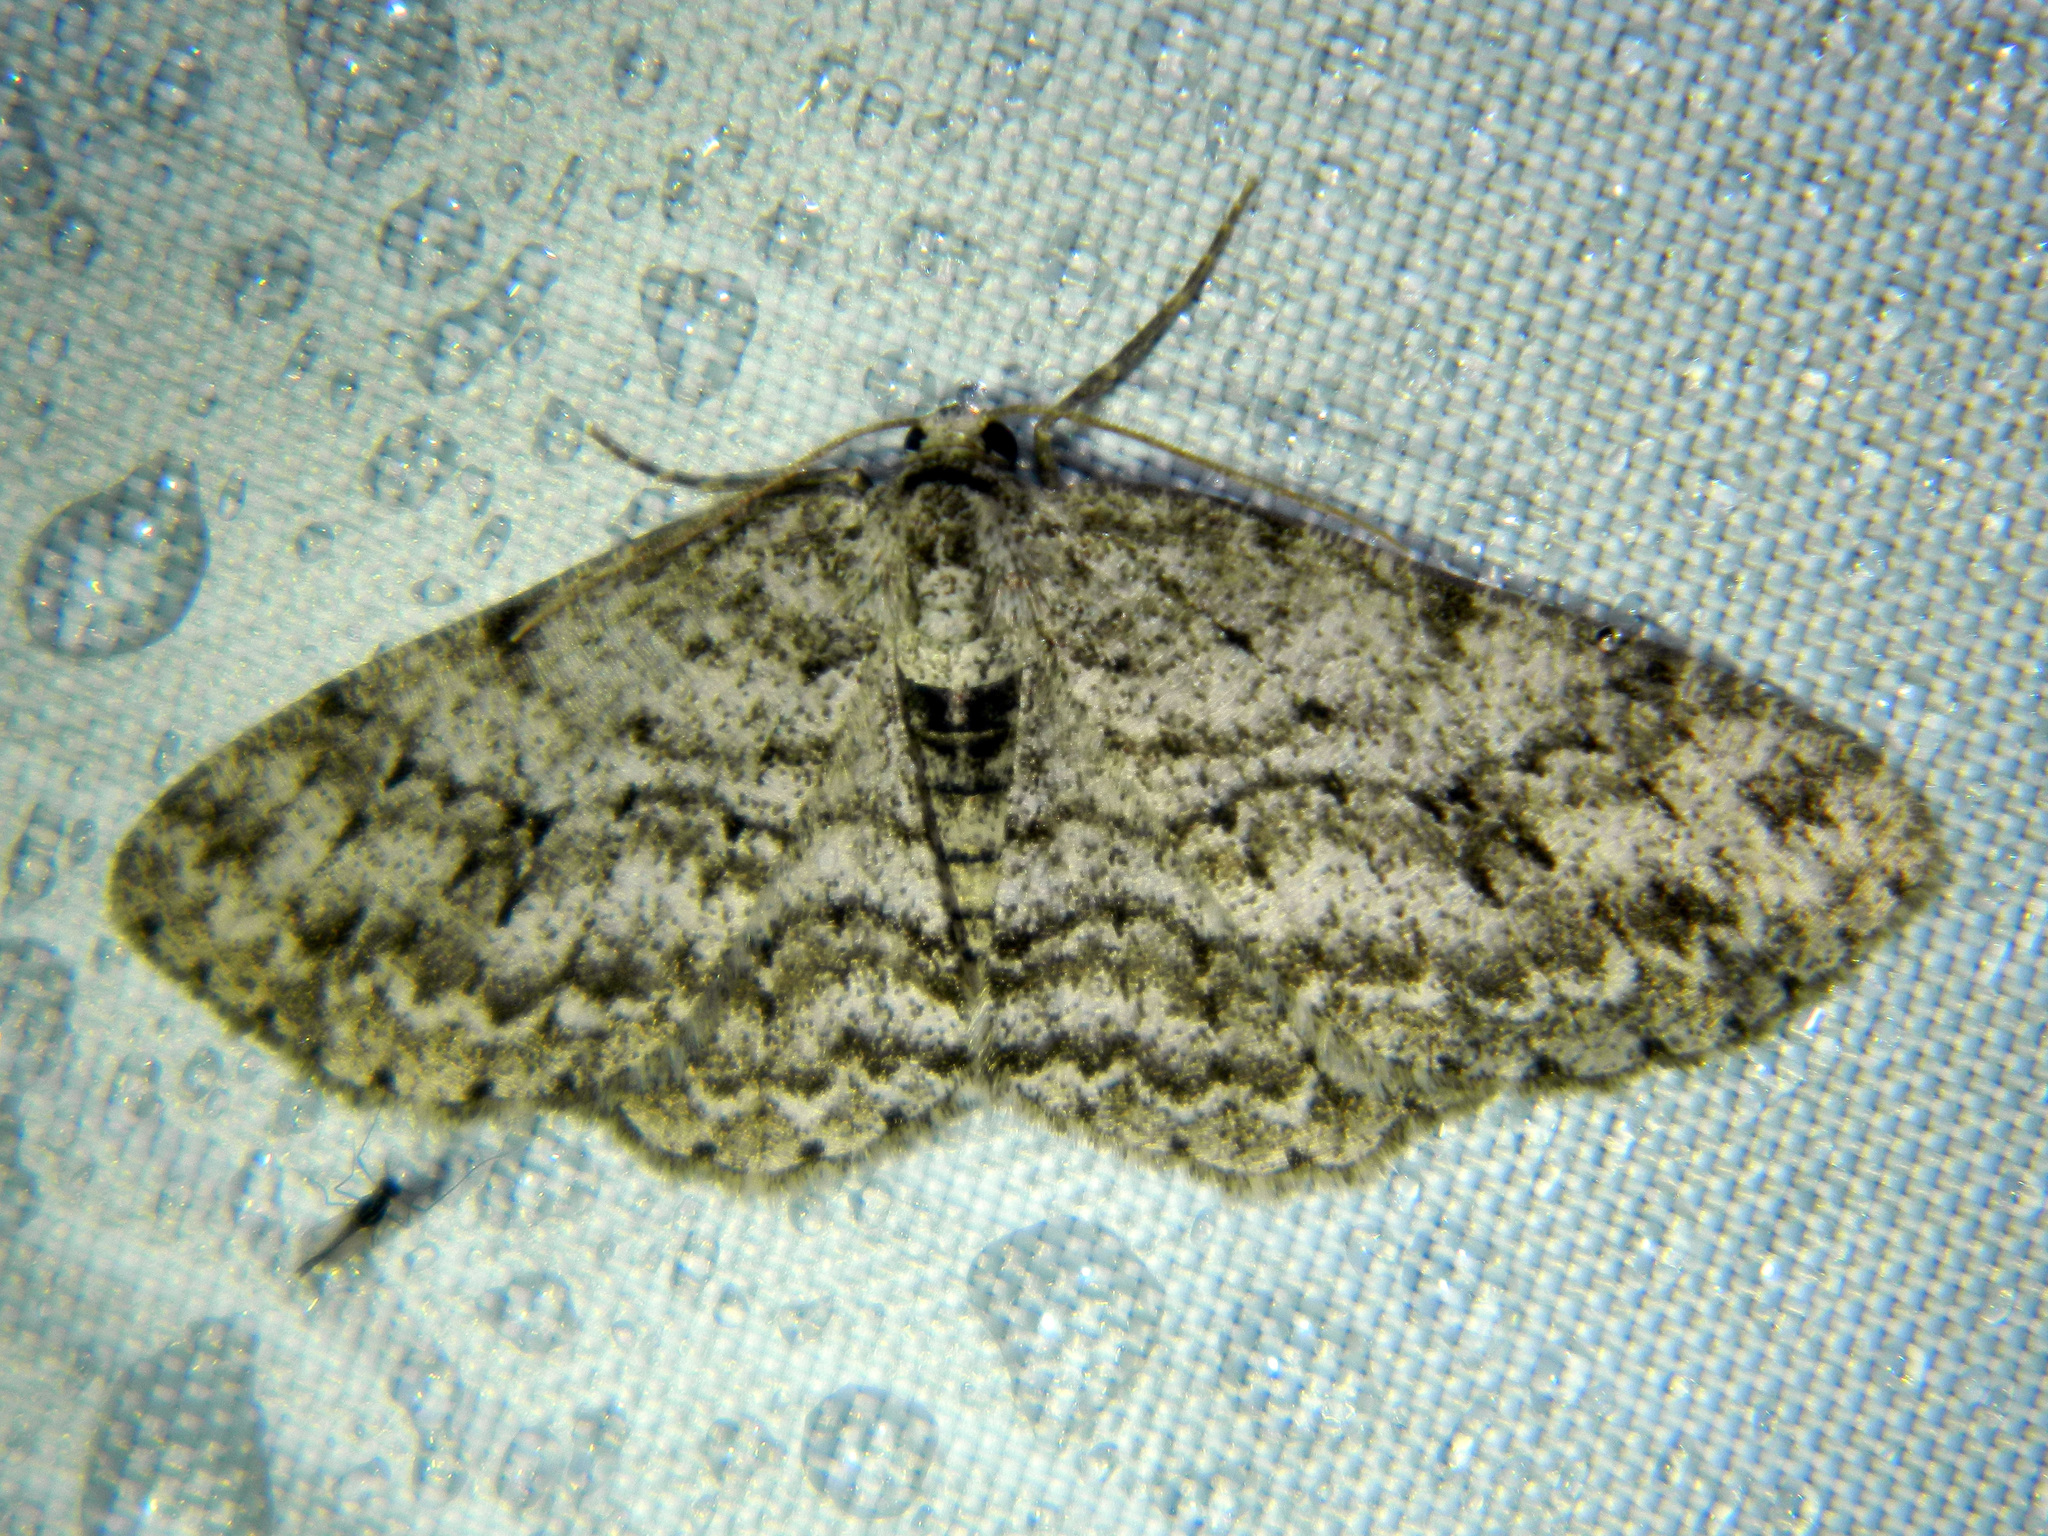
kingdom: Animalia
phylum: Arthropoda
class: Insecta
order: Lepidoptera
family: Geometridae
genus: Ectropis
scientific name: Ectropis crepuscularia
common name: Engrailed
